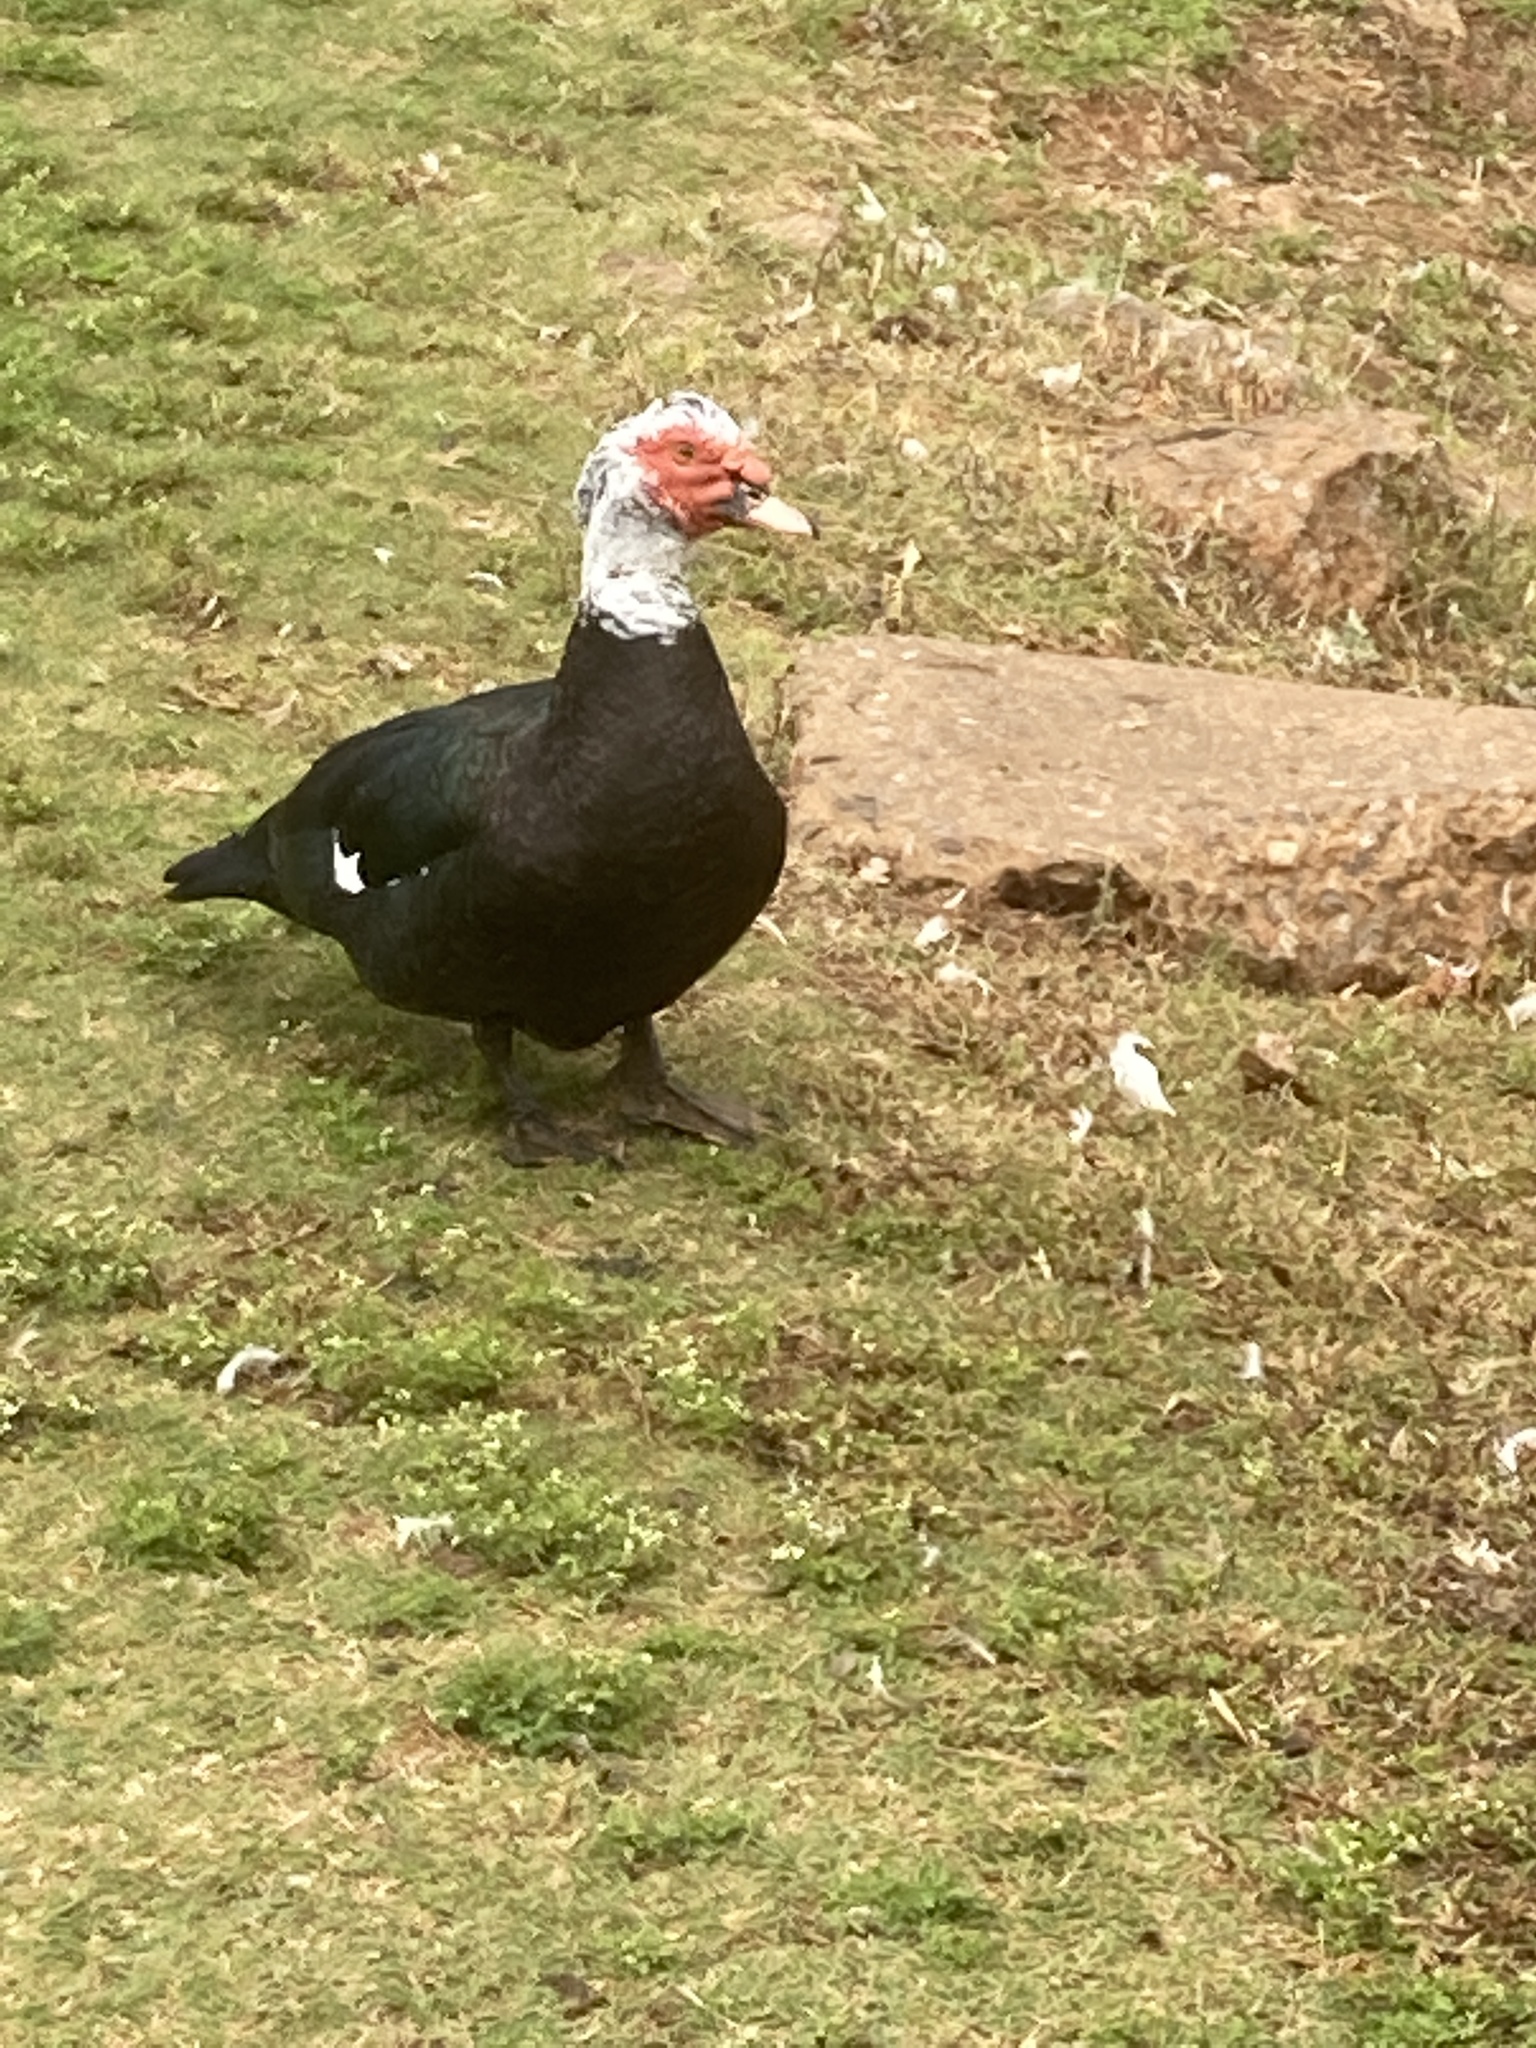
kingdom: Animalia
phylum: Chordata
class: Aves
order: Anseriformes
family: Anatidae
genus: Cairina
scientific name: Cairina moschata
